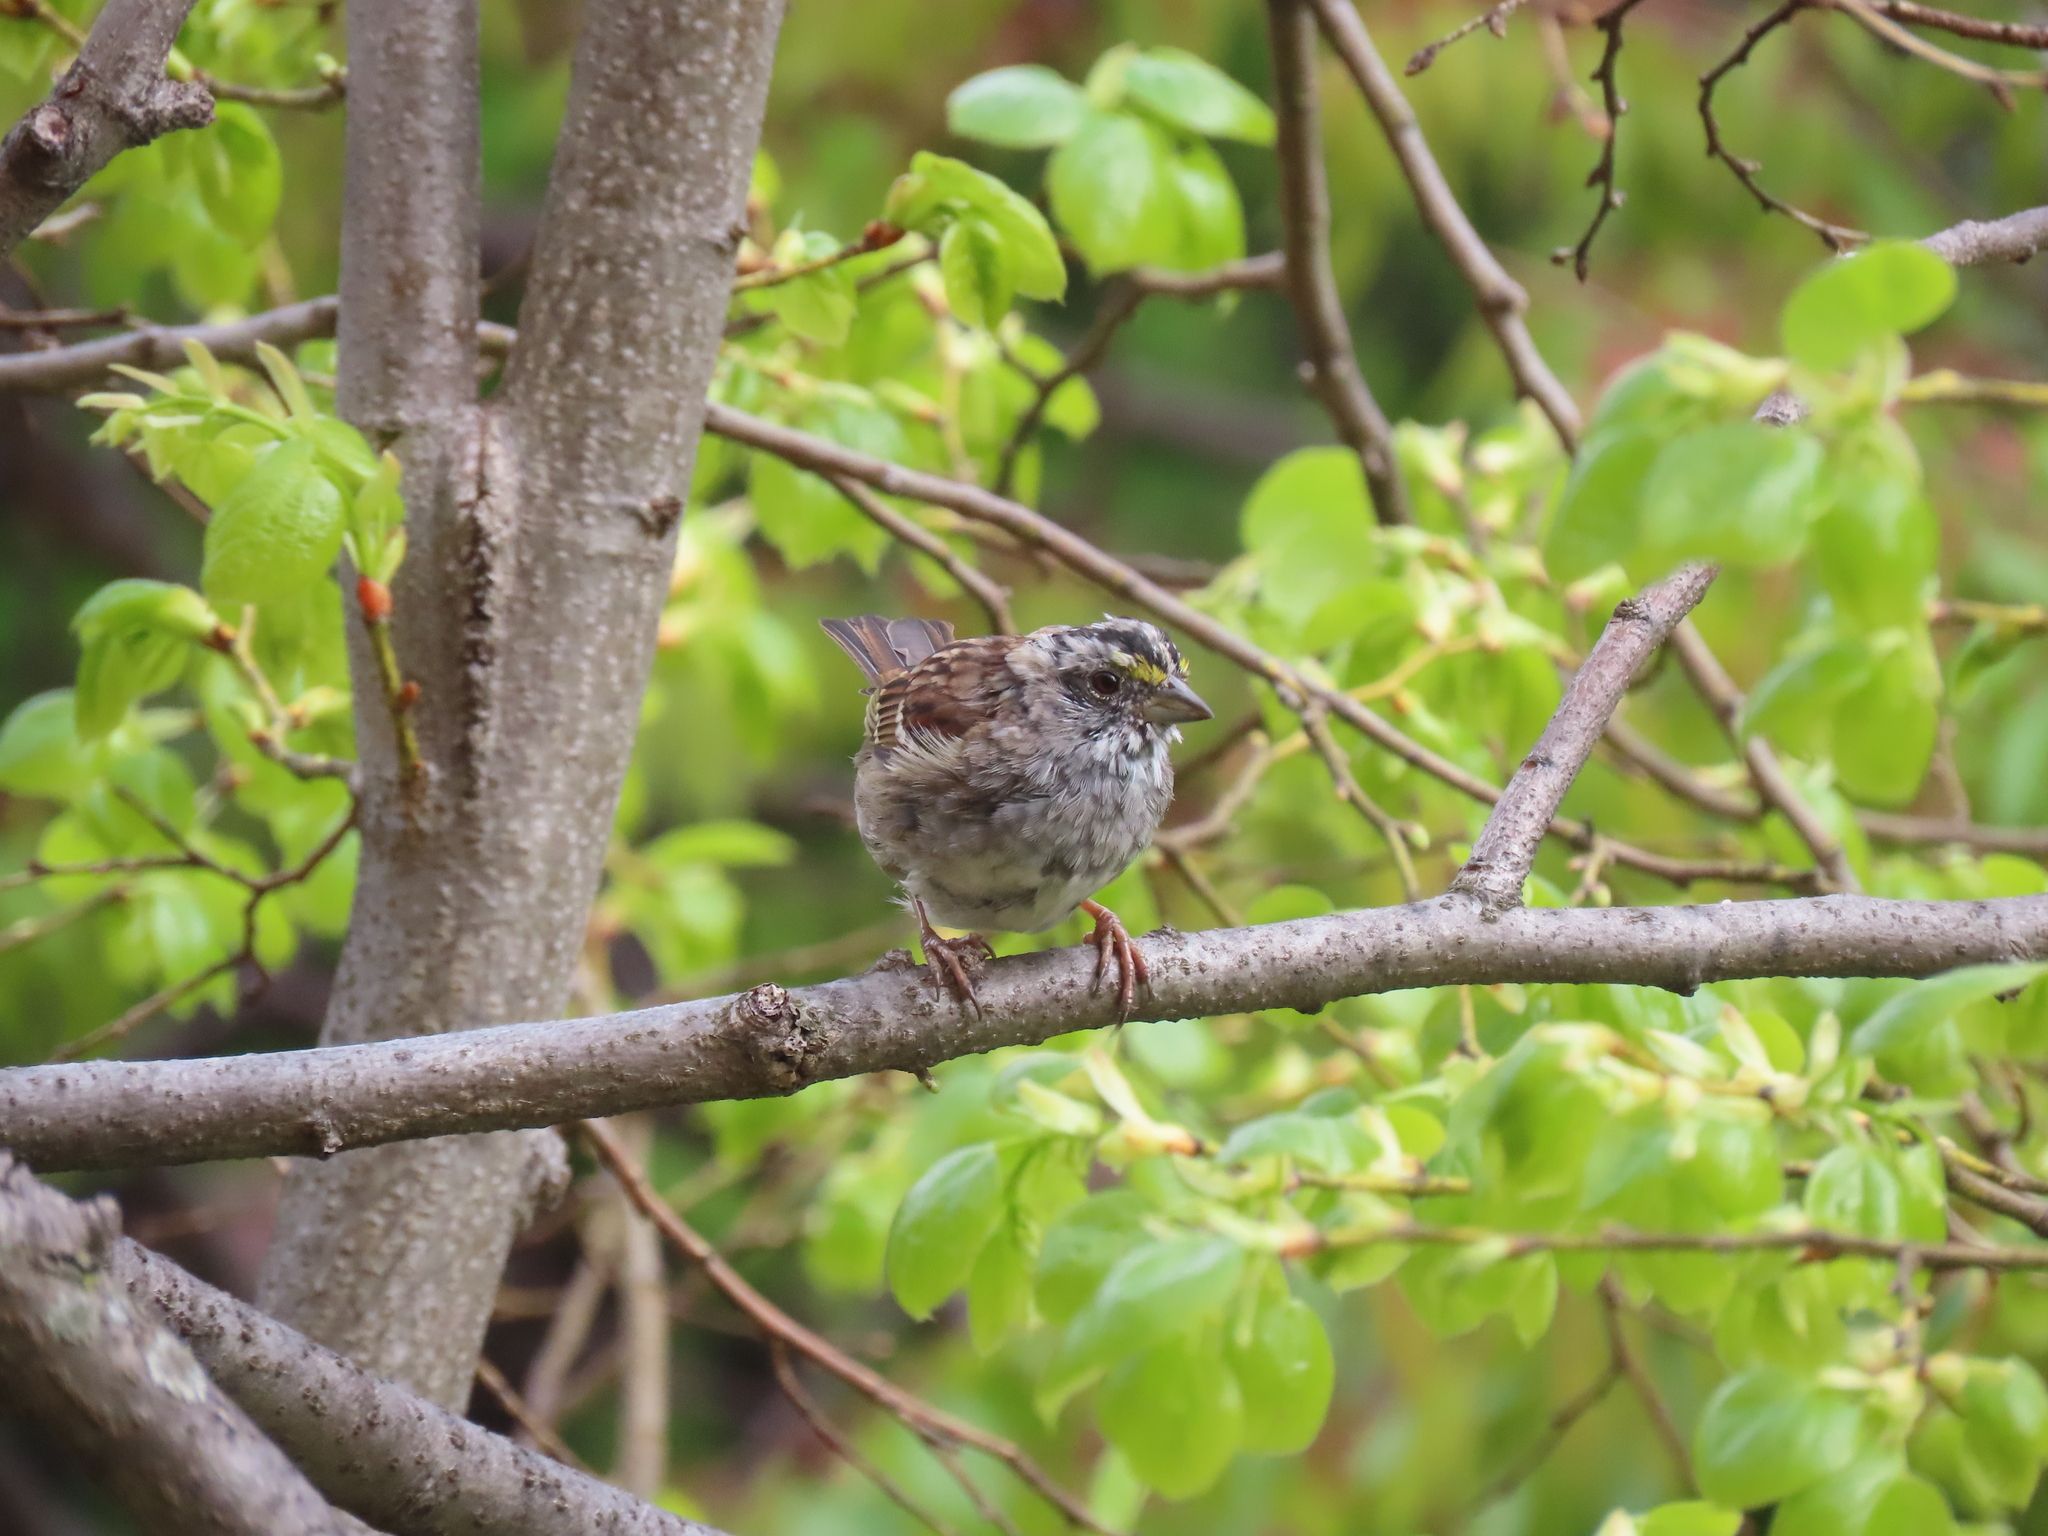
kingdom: Animalia
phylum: Chordata
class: Aves
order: Passeriformes
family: Passerellidae
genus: Zonotrichia
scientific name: Zonotrichia albicollis
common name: White-throated sparrow
